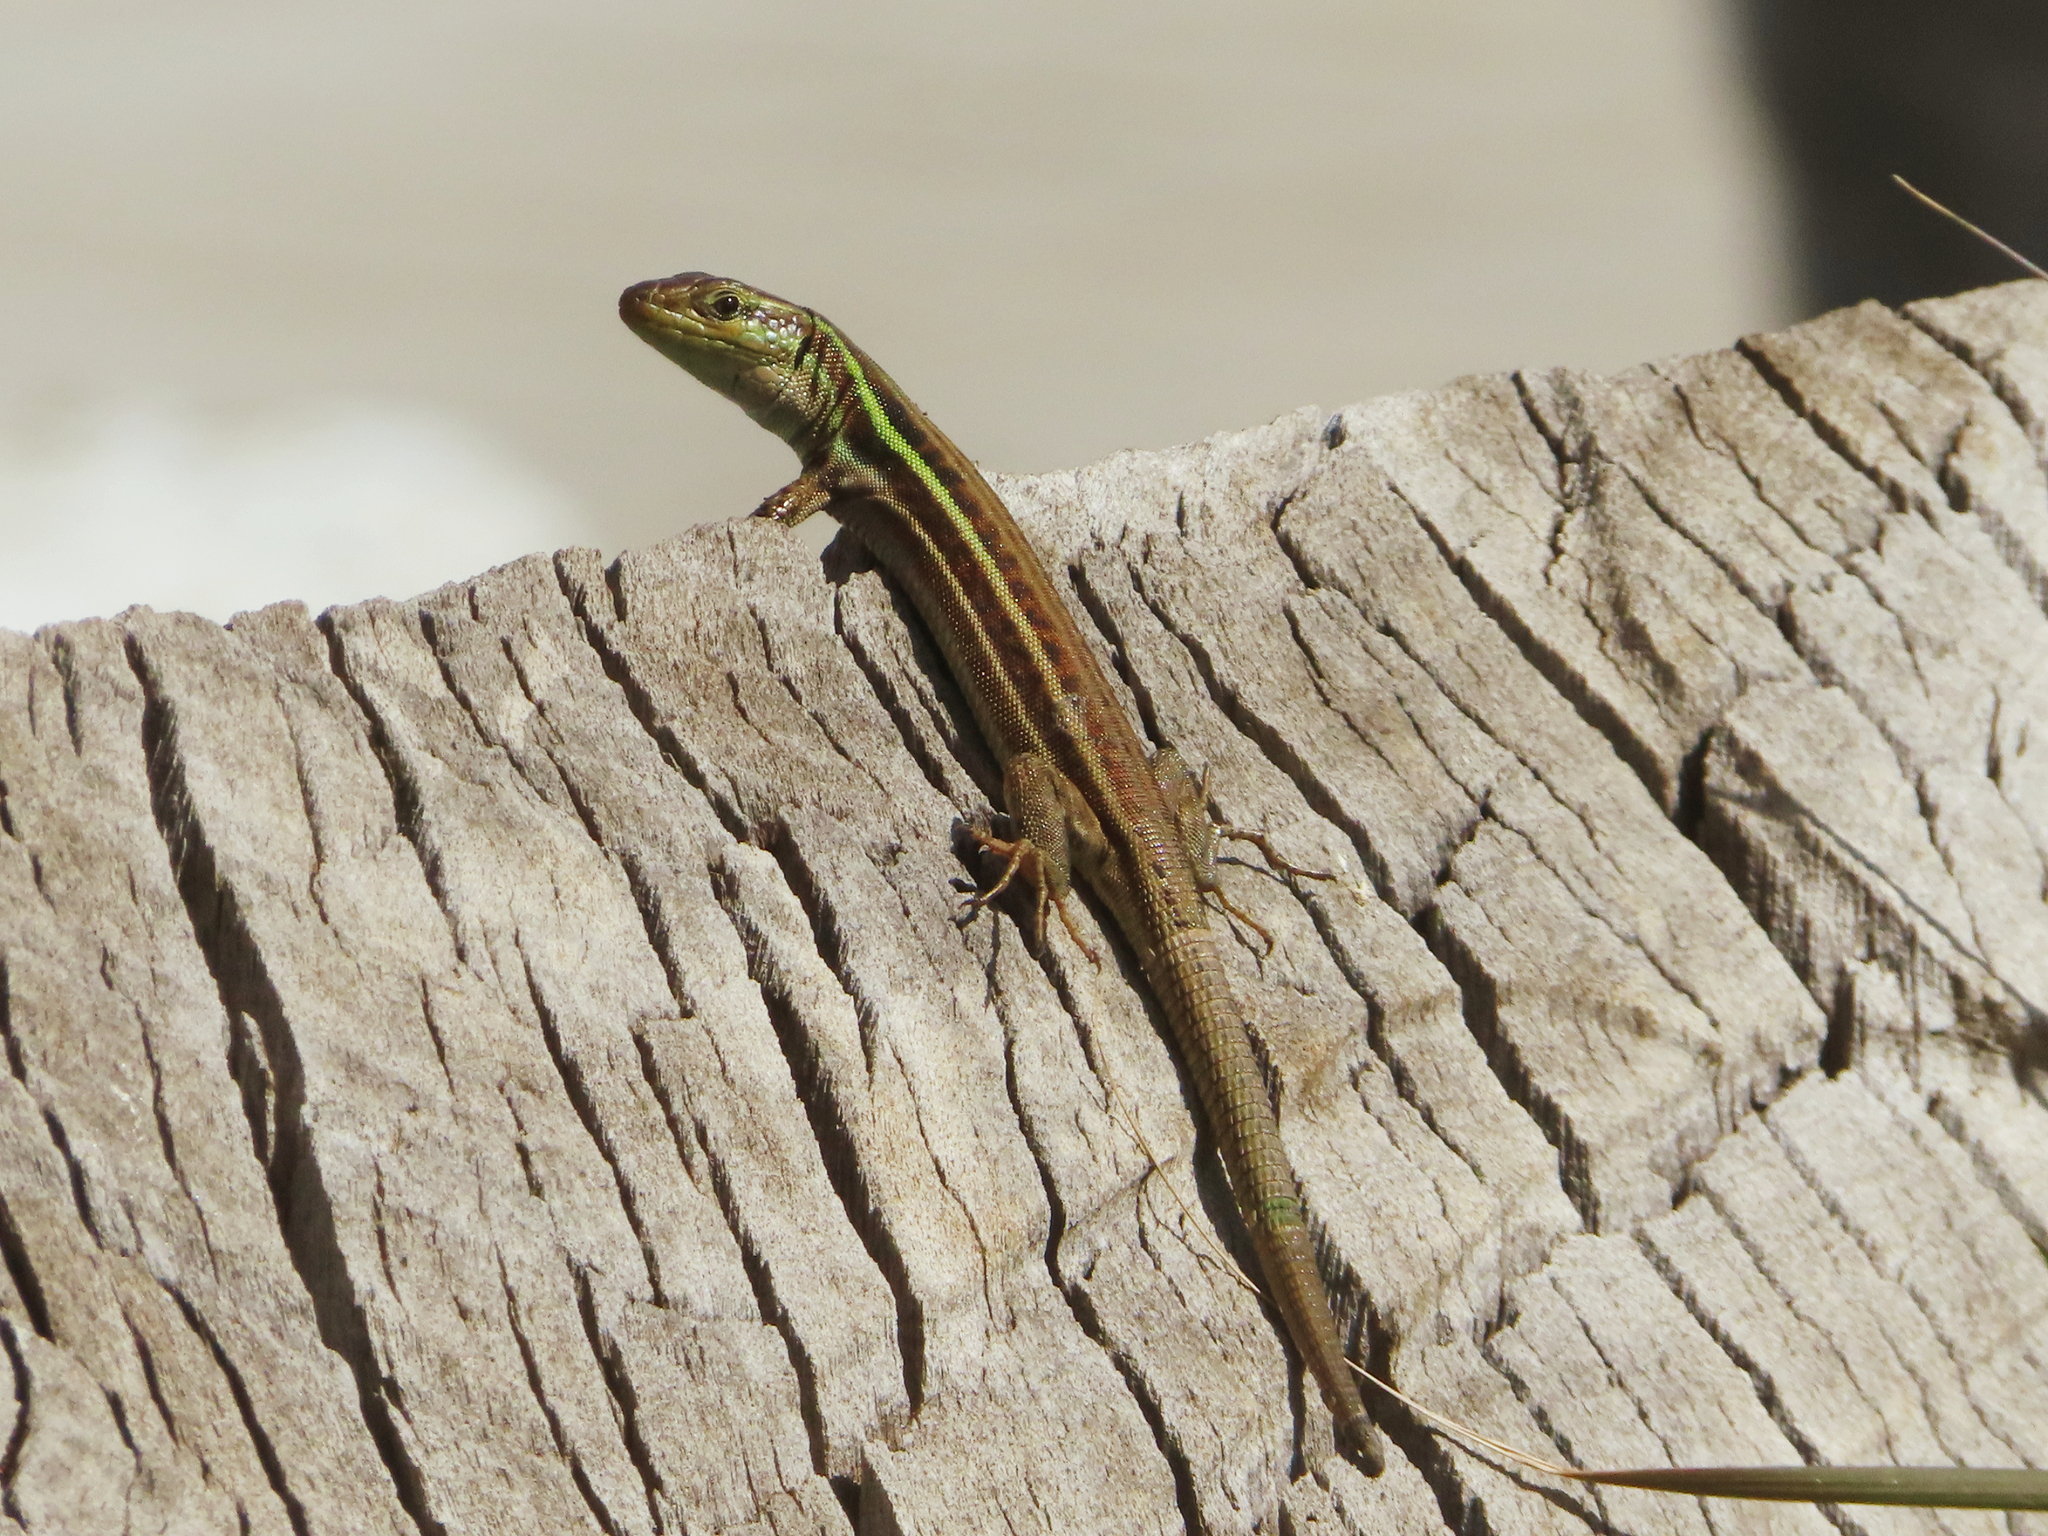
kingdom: Animalia
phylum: Chordata
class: Squamata
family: Lacertidae
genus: Podarcis
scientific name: Podarcis peloponnesiacus
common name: Peloponnese wall lizard
